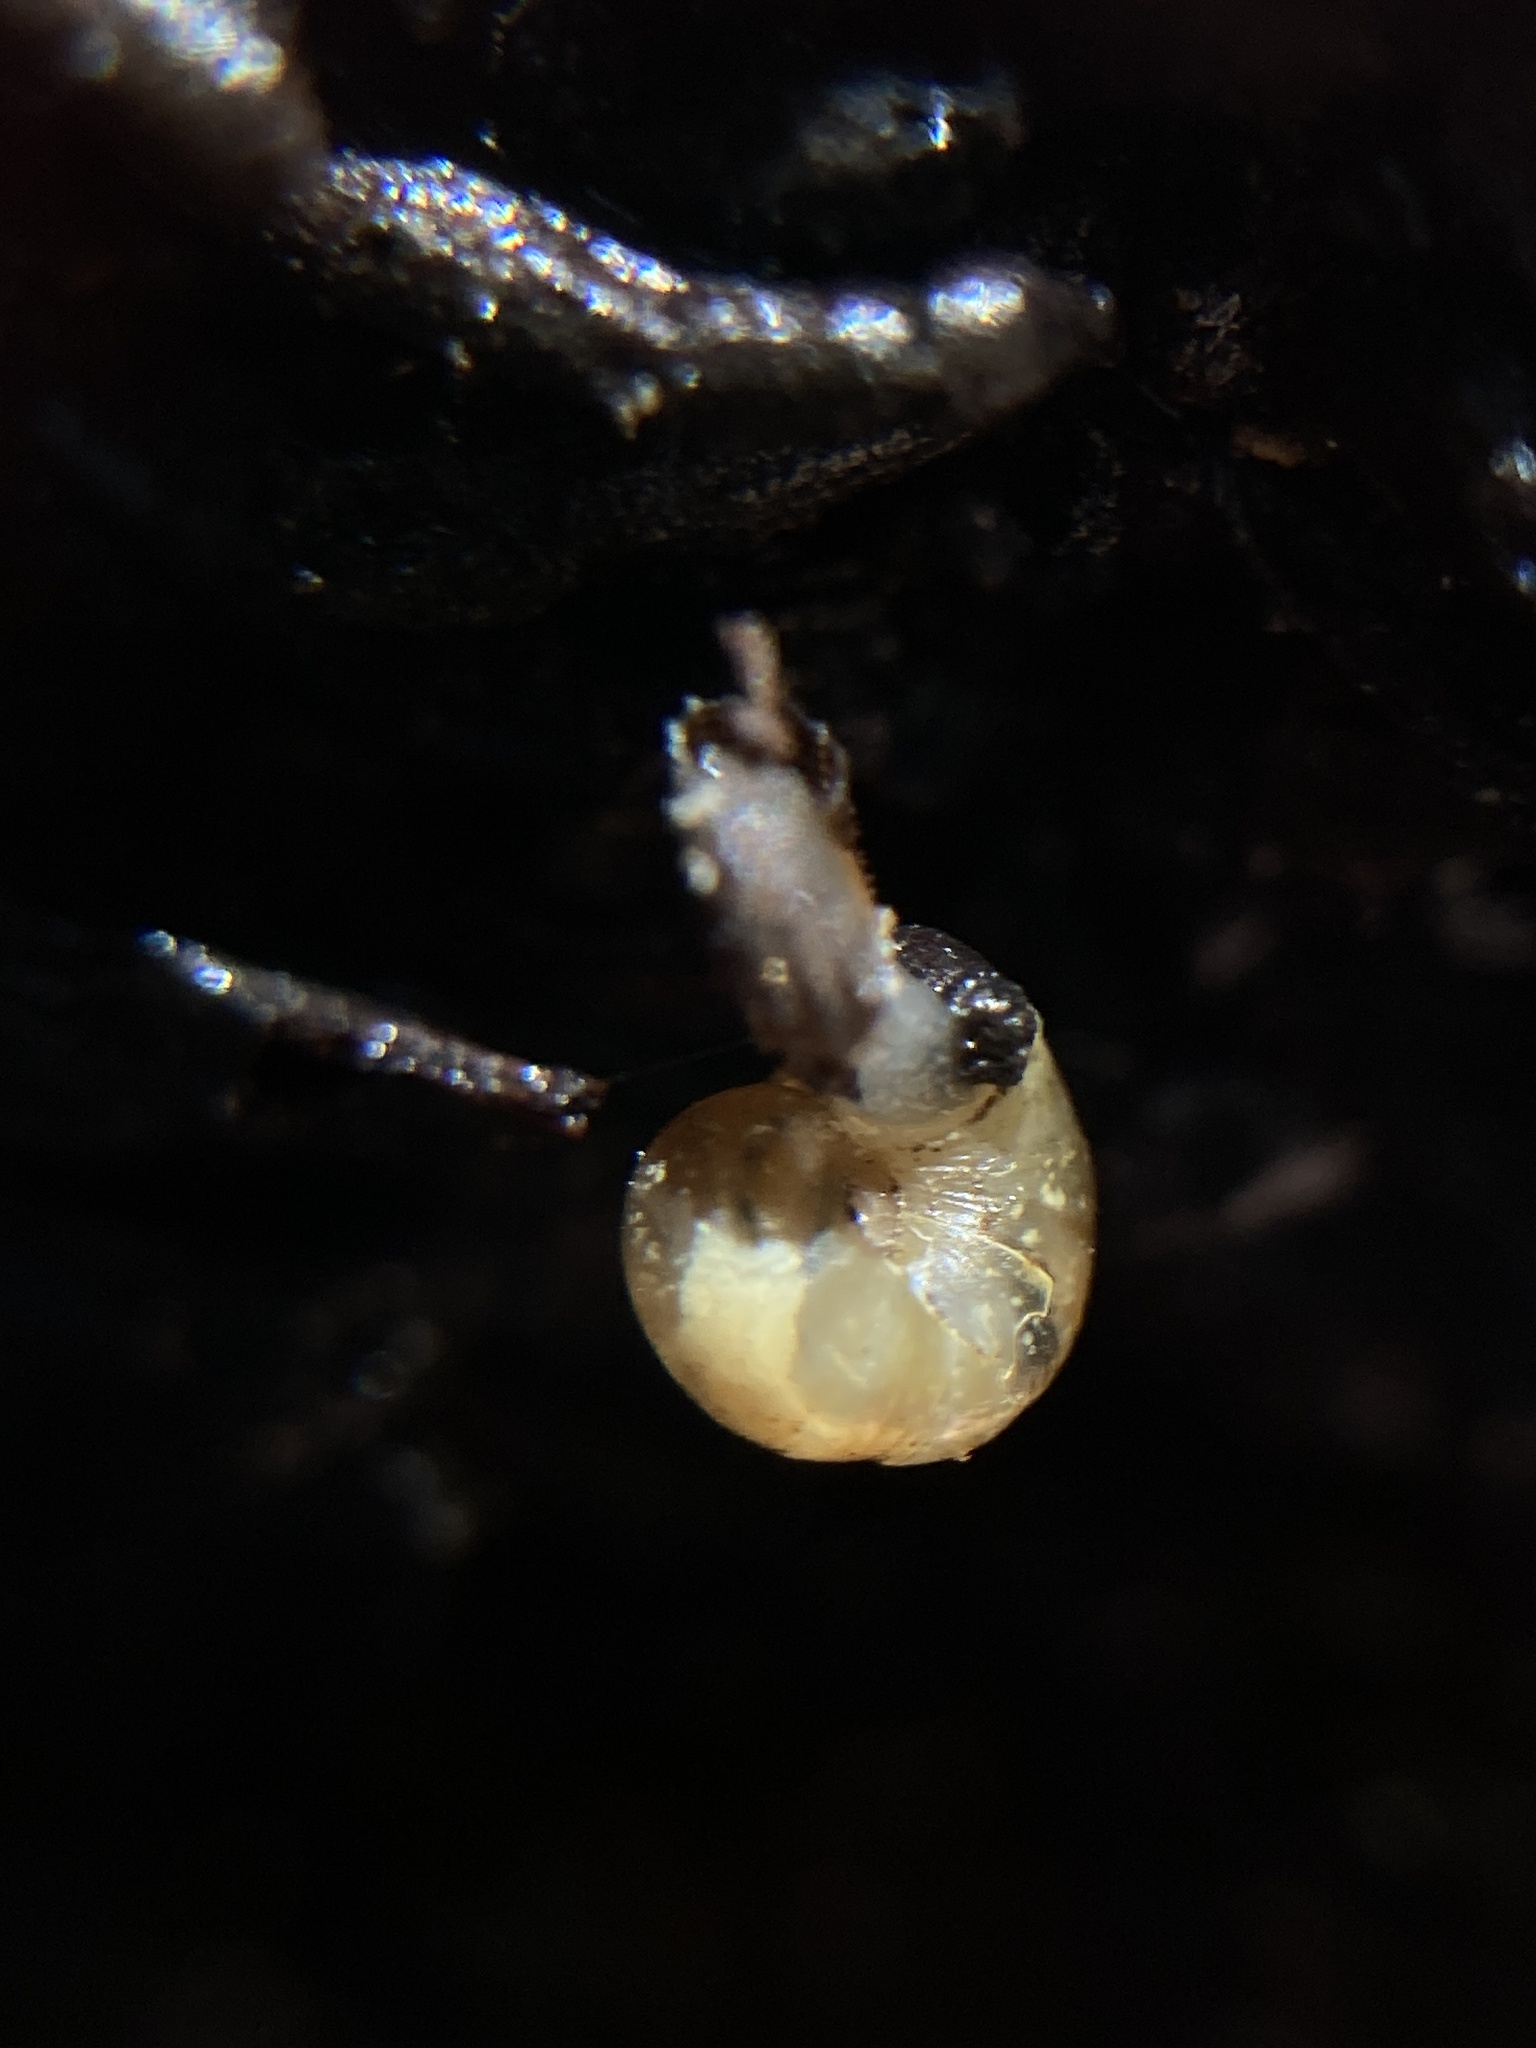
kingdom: Animalia
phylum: Mollusca
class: Gastropoda
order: Stylommatophora
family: Rhytididae
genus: Austrorhytida
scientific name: Austrorhytida capillacea
